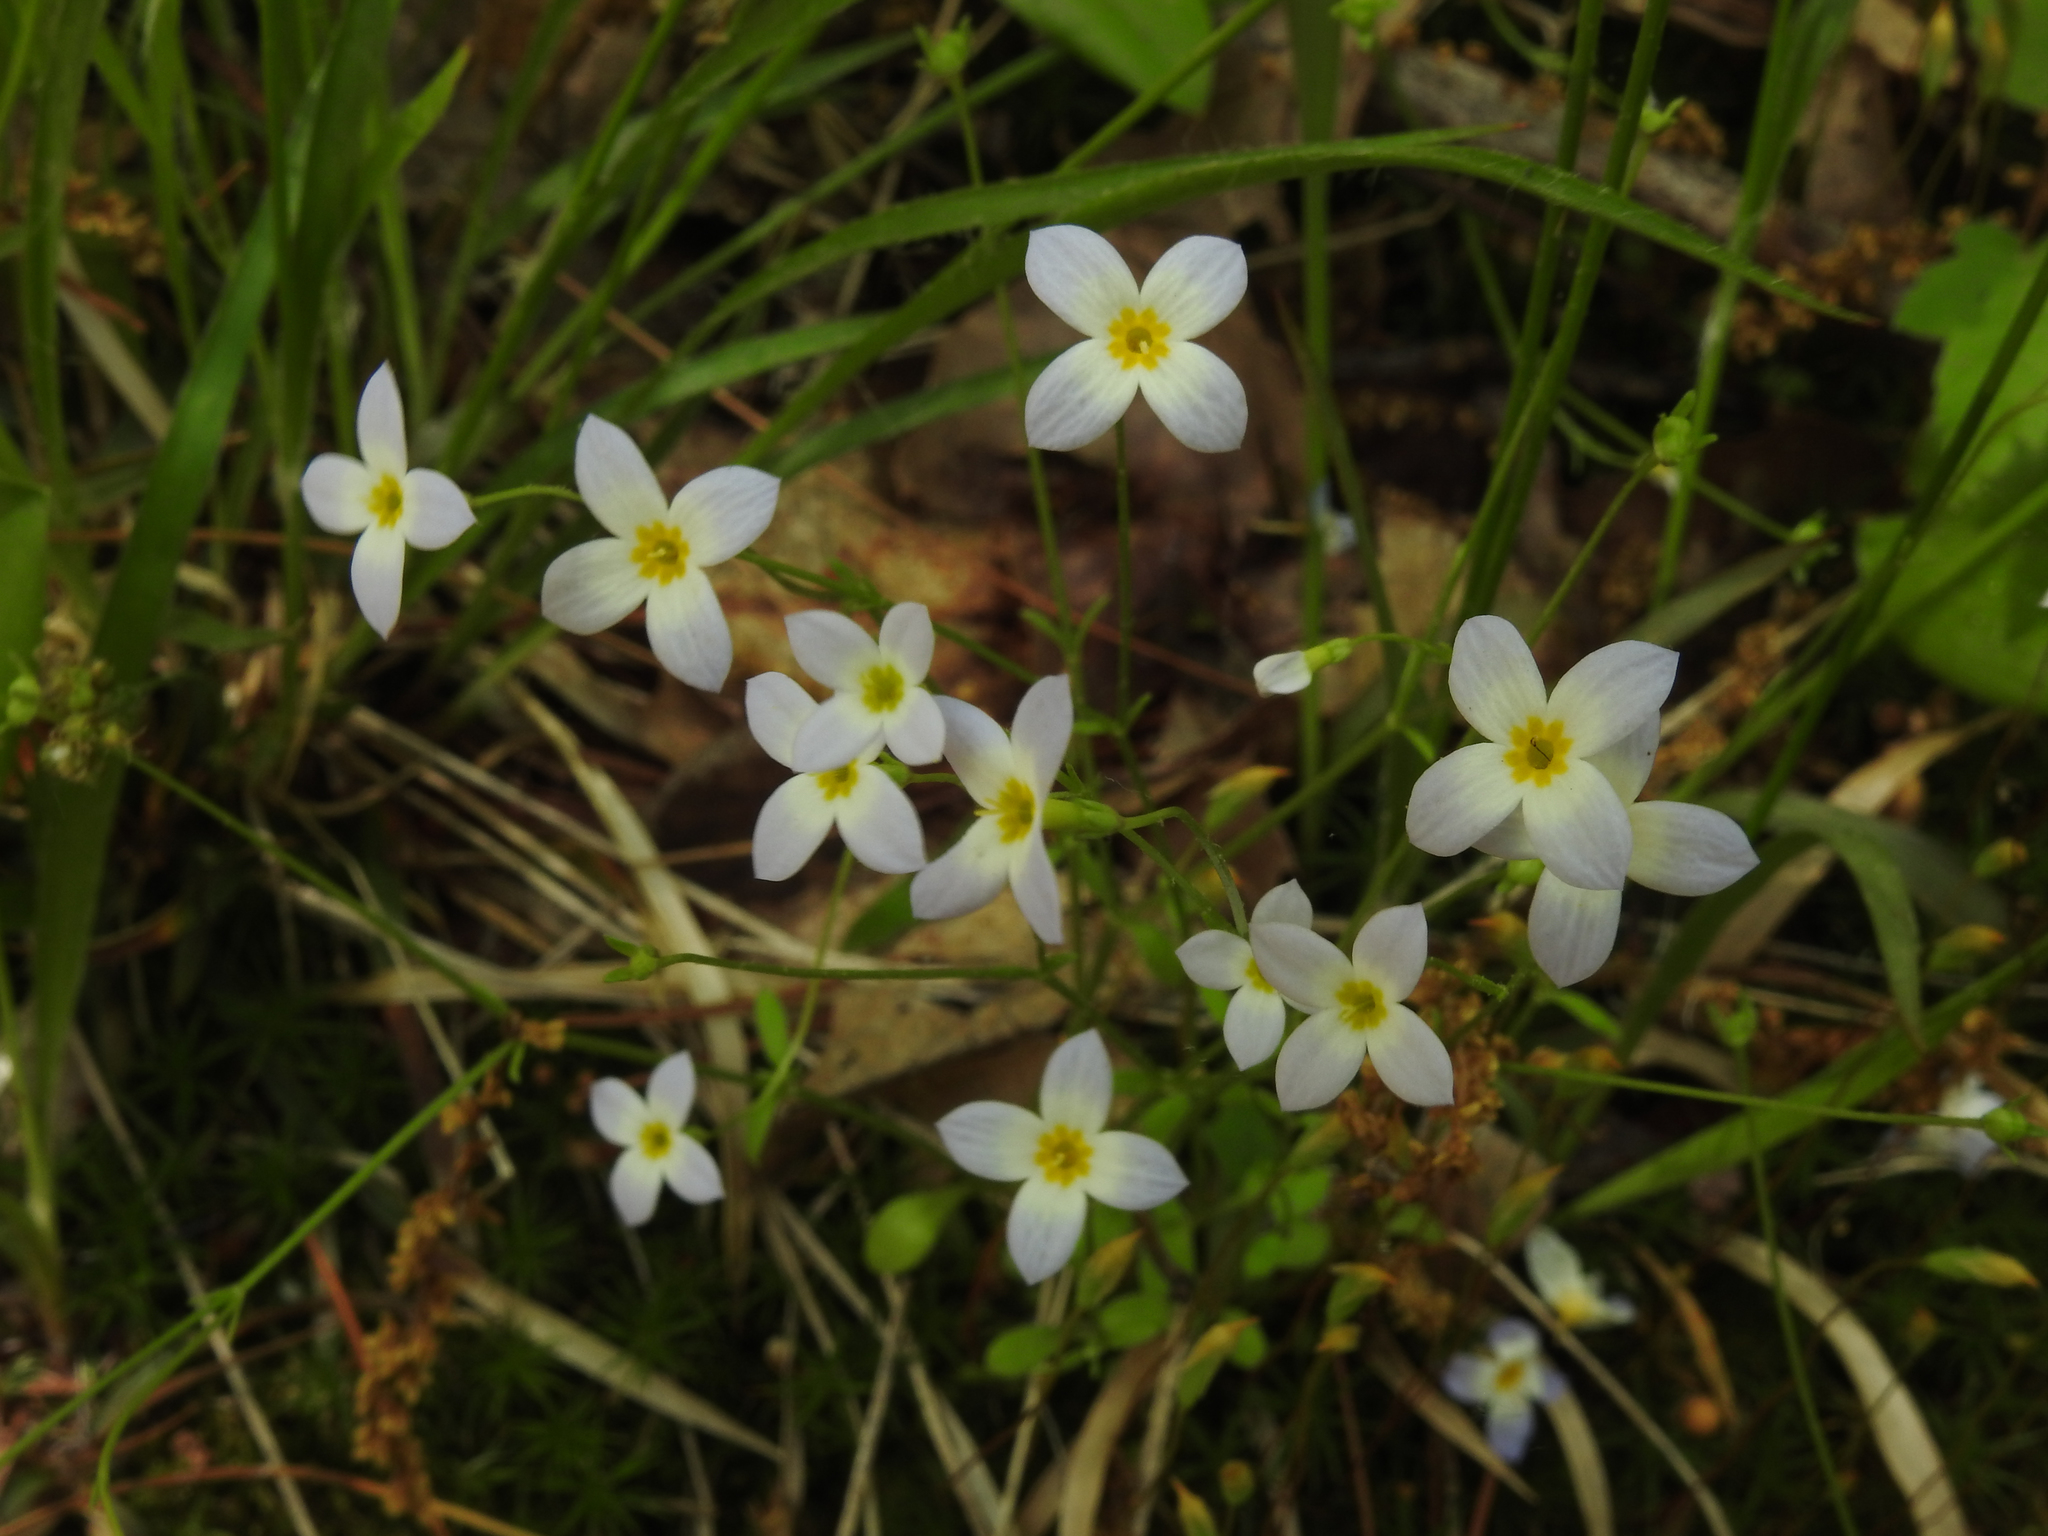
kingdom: Plantae
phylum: Tracheophyta
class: Magnoliopsida
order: Gentianales
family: Rubiaceae
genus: Houstonia
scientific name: Houstonia caerulea
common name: Bluets
